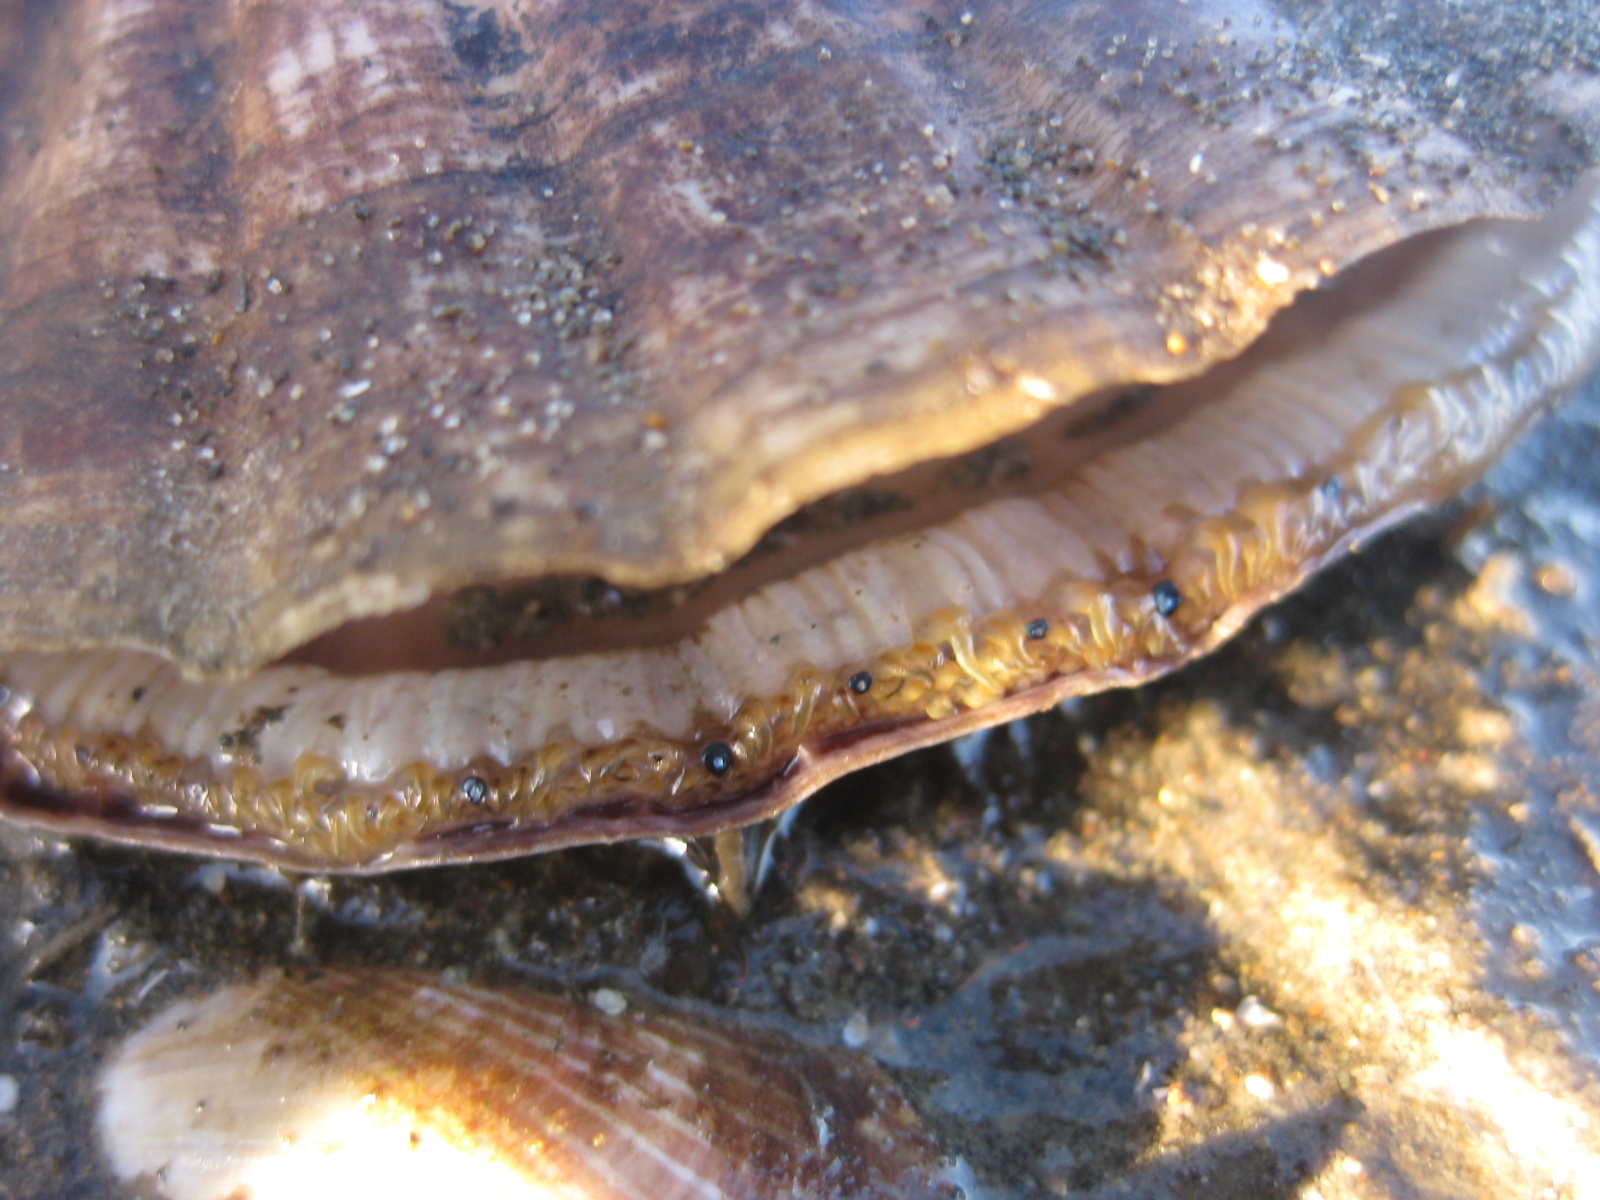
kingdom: Animalia
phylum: Mollusca
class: Bivalvia
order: Pectinida
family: Pectinidae
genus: Pecten
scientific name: Pecten novaezelandiae
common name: New zealand scallop
